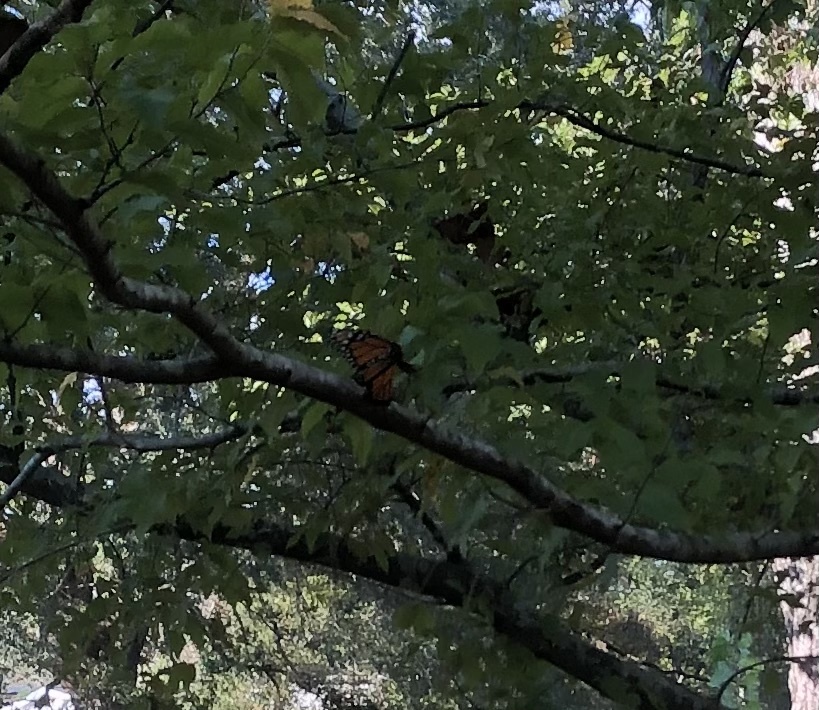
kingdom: Animalia
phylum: Arthropoda
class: Insecta
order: Lepidoptera
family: Nymphalidae
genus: Danaus
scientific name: Danaus plexippus
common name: Monarch
